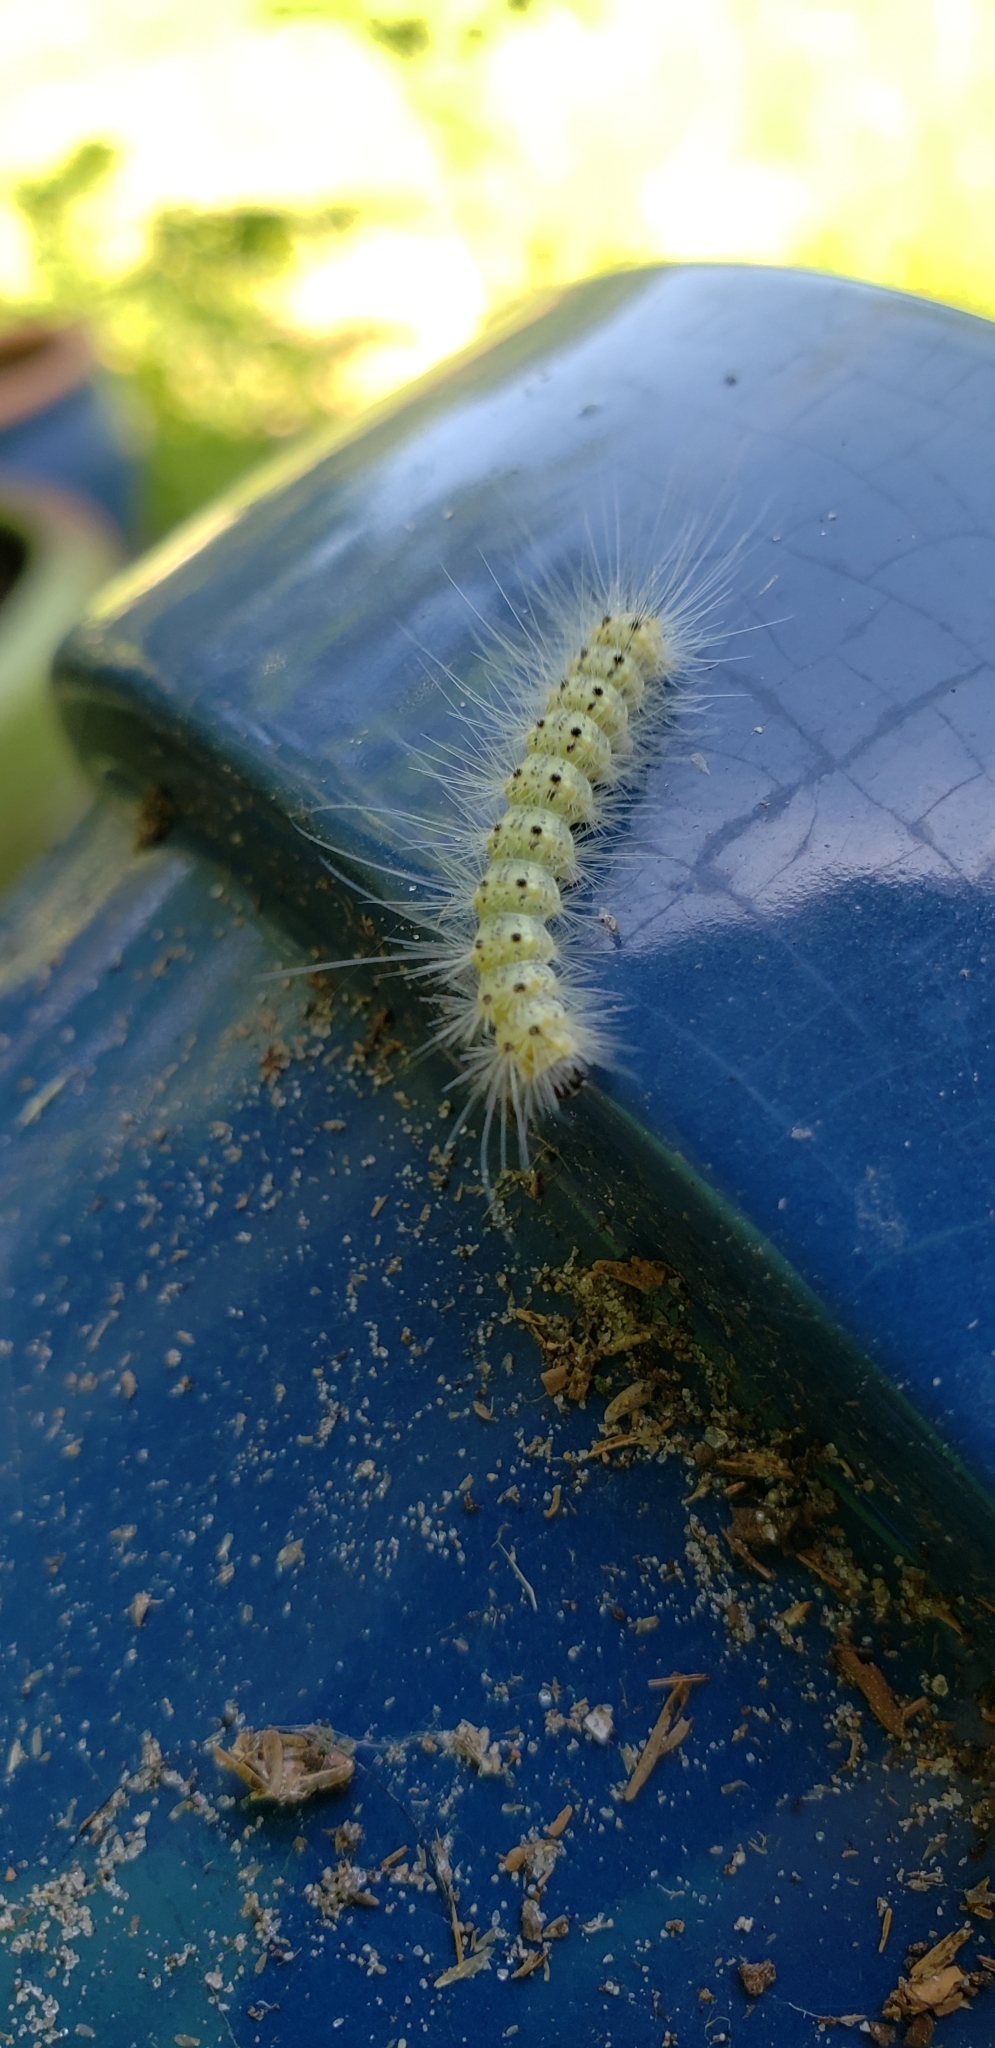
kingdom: Animalia
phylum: Arthropoda
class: Insecta
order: Lepidoptera
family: Erebidae
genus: Hyphantria
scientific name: Hyphantria cunea
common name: American white moth
